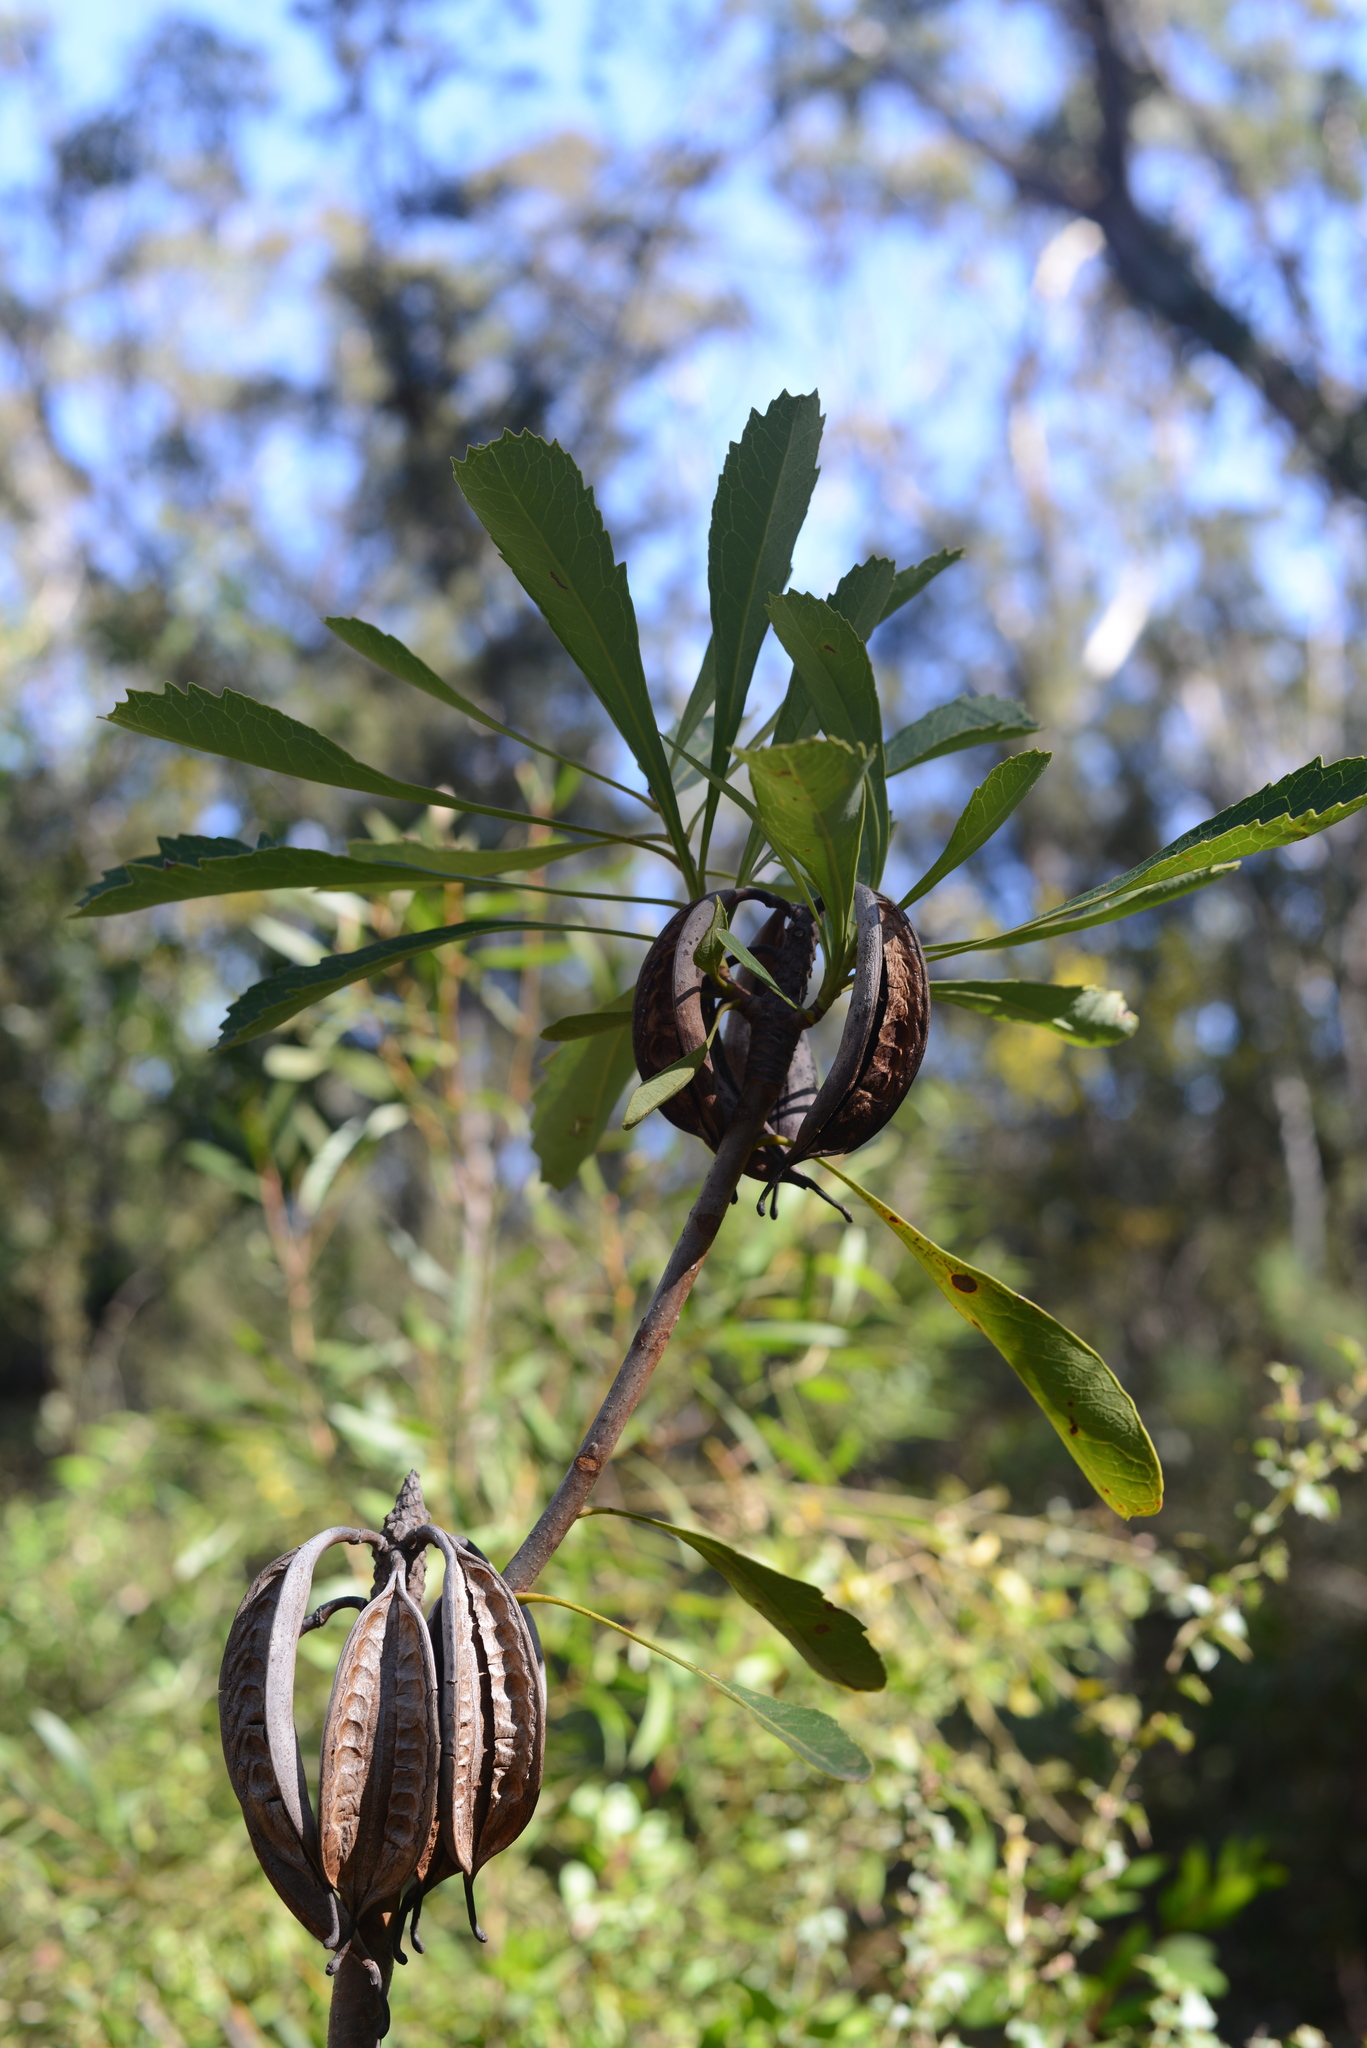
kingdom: Plantae
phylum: Tracheophyta
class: Magnoliopsida
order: Proteales
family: Proteaceae
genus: Telopea
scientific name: Telopea speciosissima
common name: New south wales waratah
